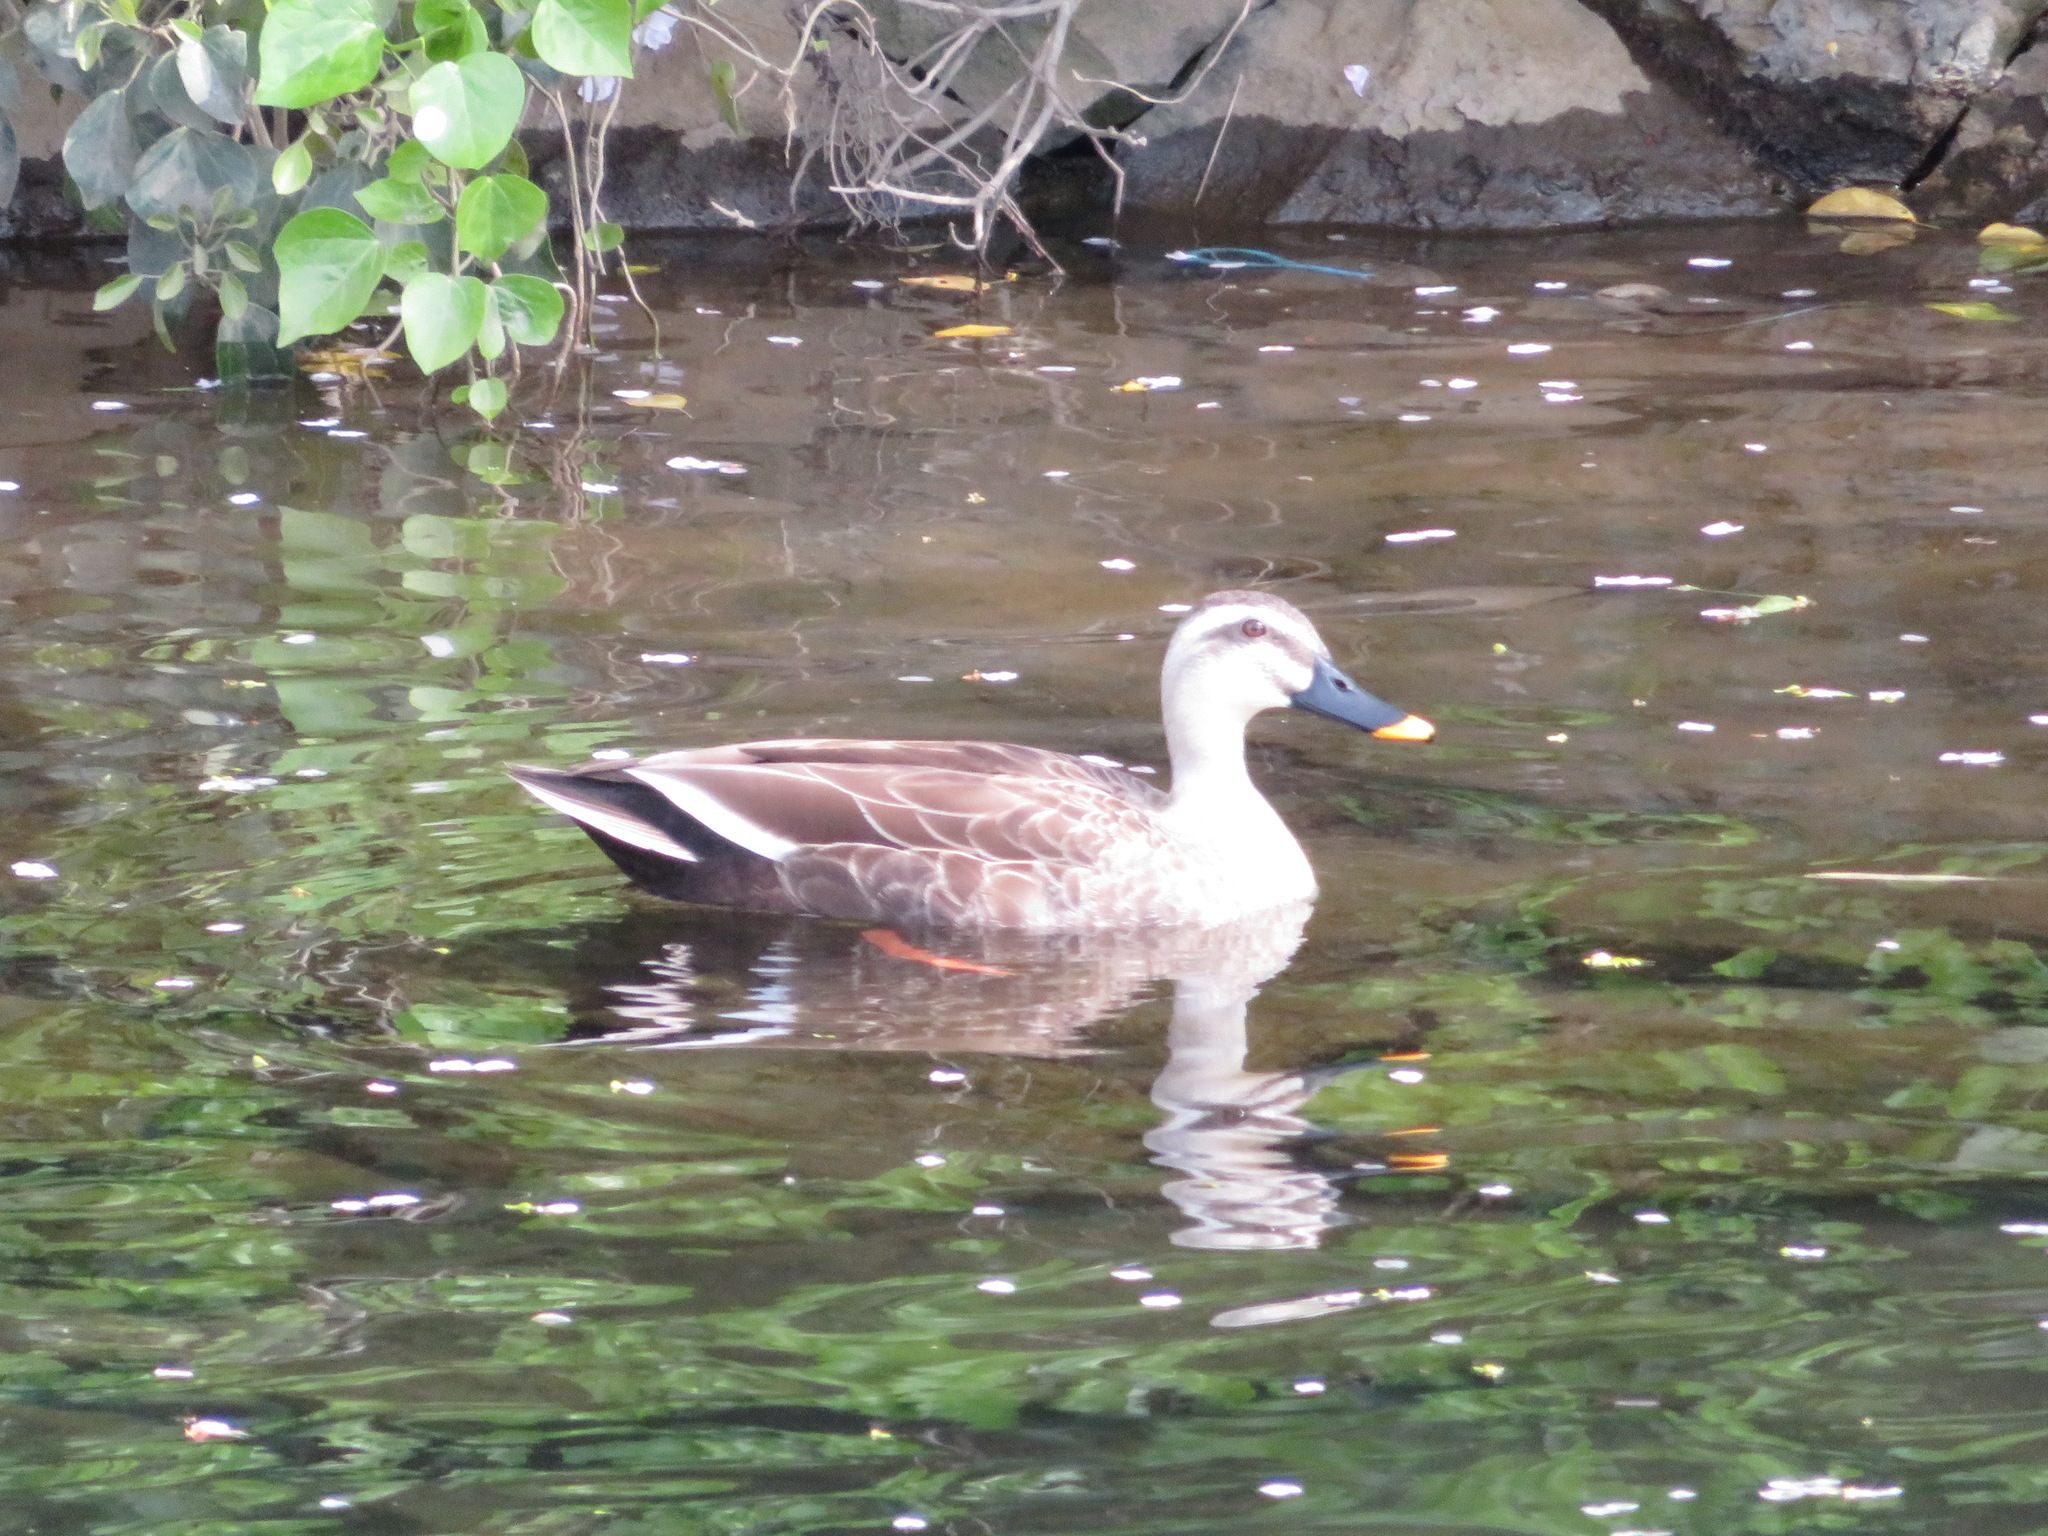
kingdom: Animalia
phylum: Chordata
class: Aves
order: Anseriformes
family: Anatidae
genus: Anas
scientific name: Anas zonorhyncha
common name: Eastern spot-billed duck
